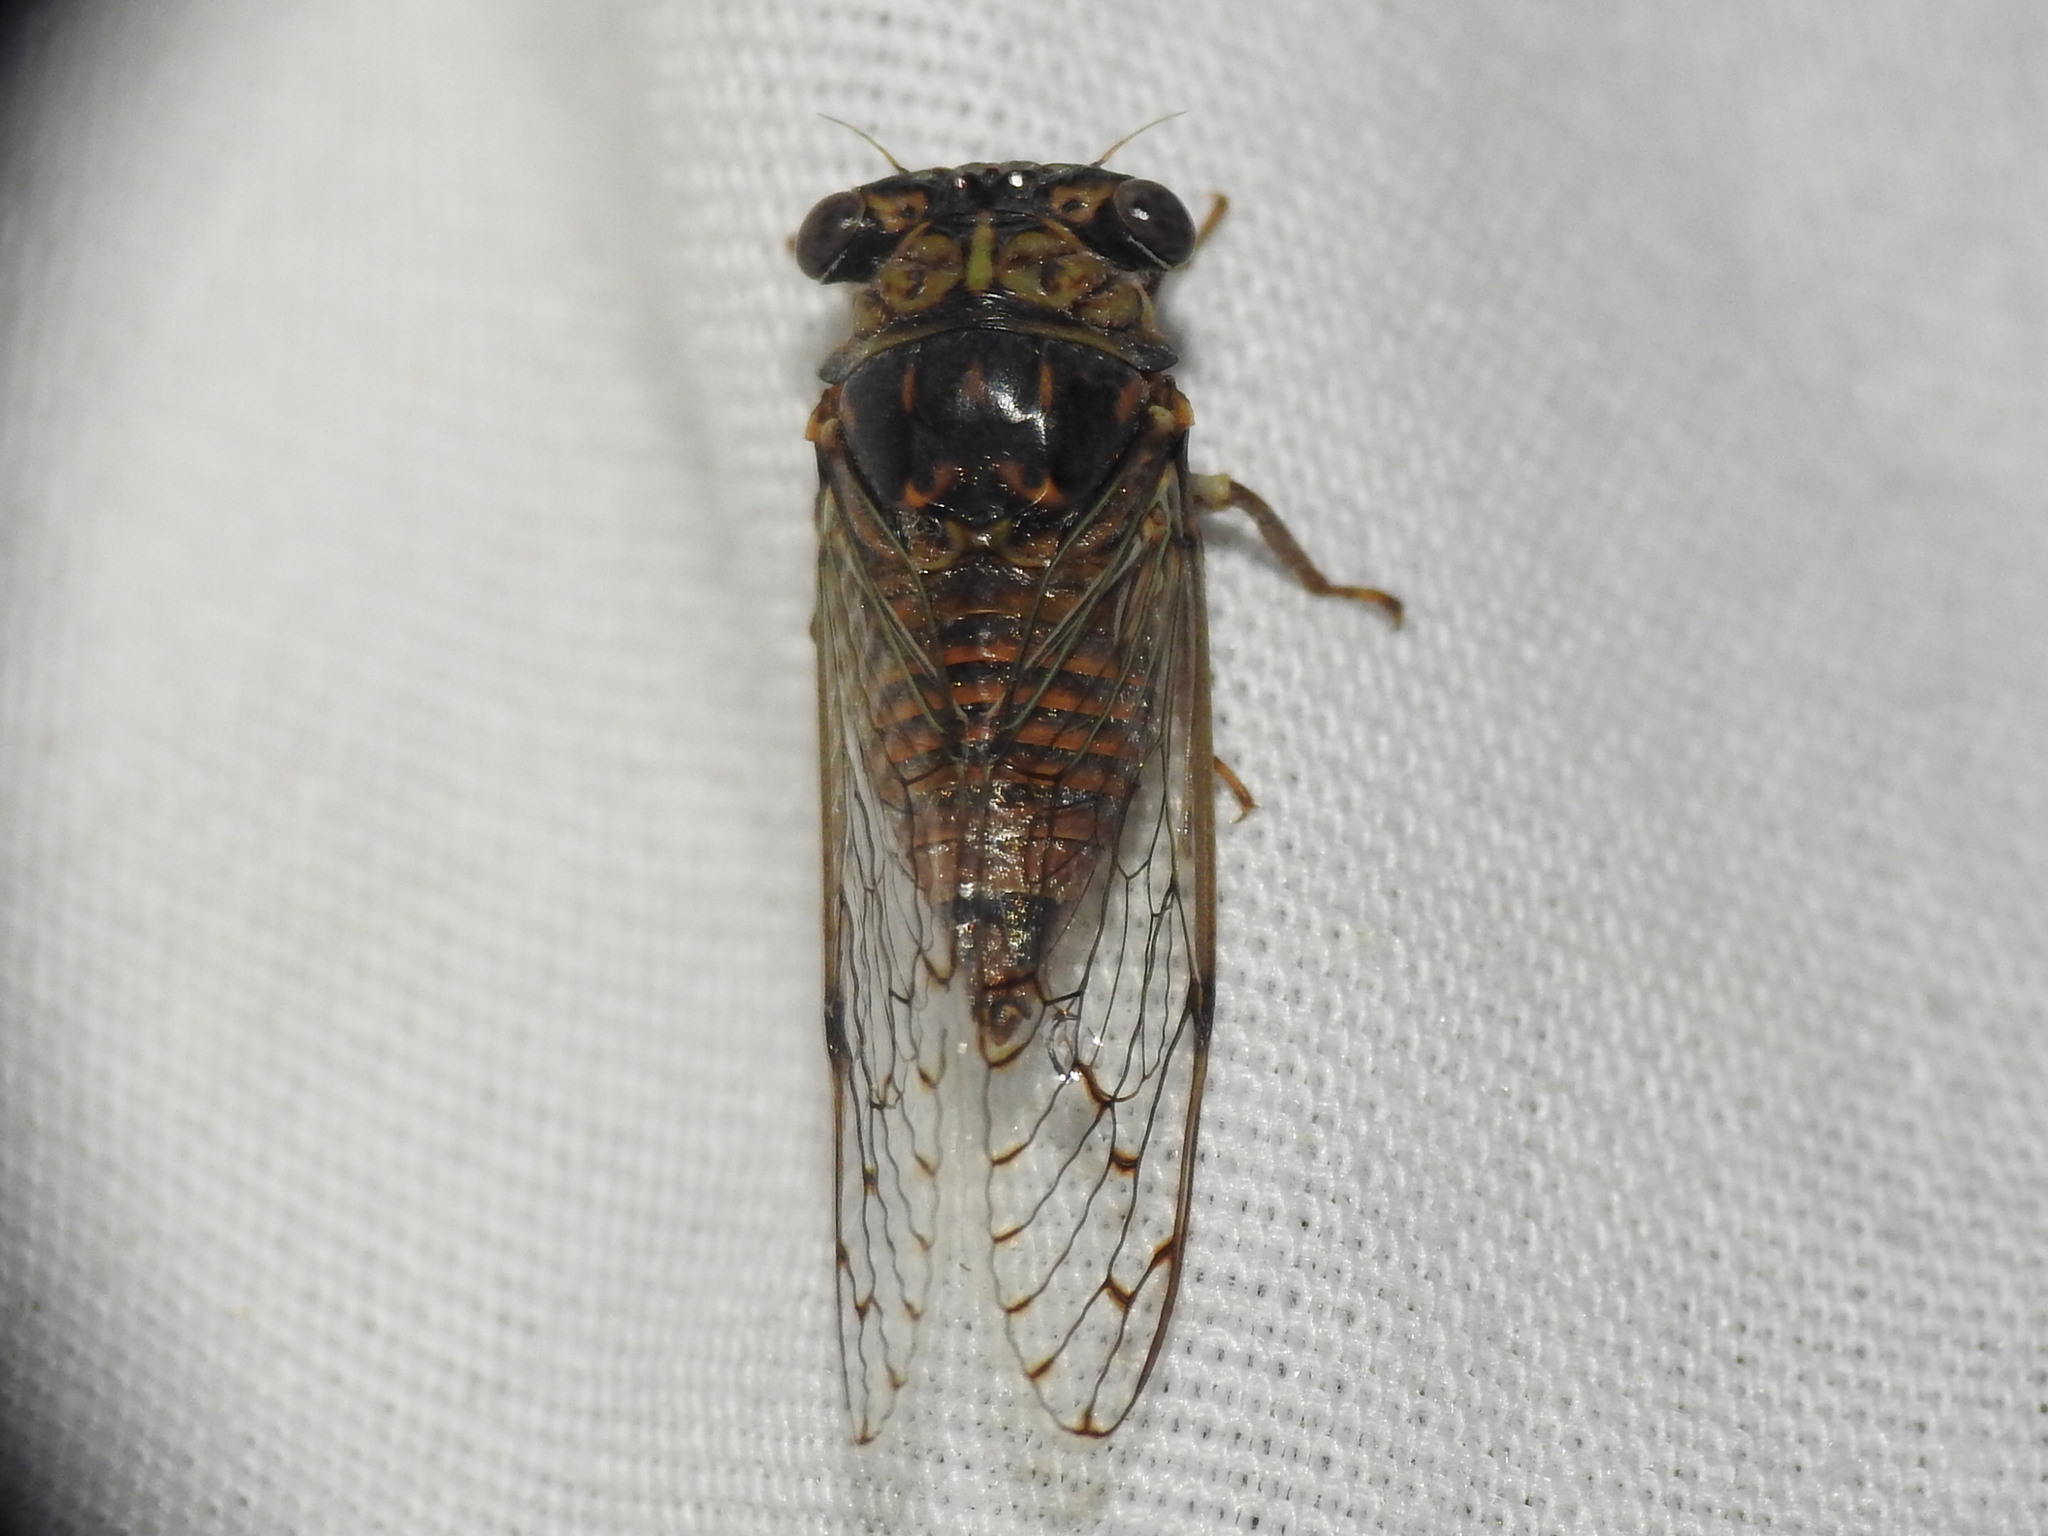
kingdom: Animalia
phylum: Arthropoda
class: Insecta
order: Hemiptera
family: Cicadidae
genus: Pacarina
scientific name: Pacarina puella
